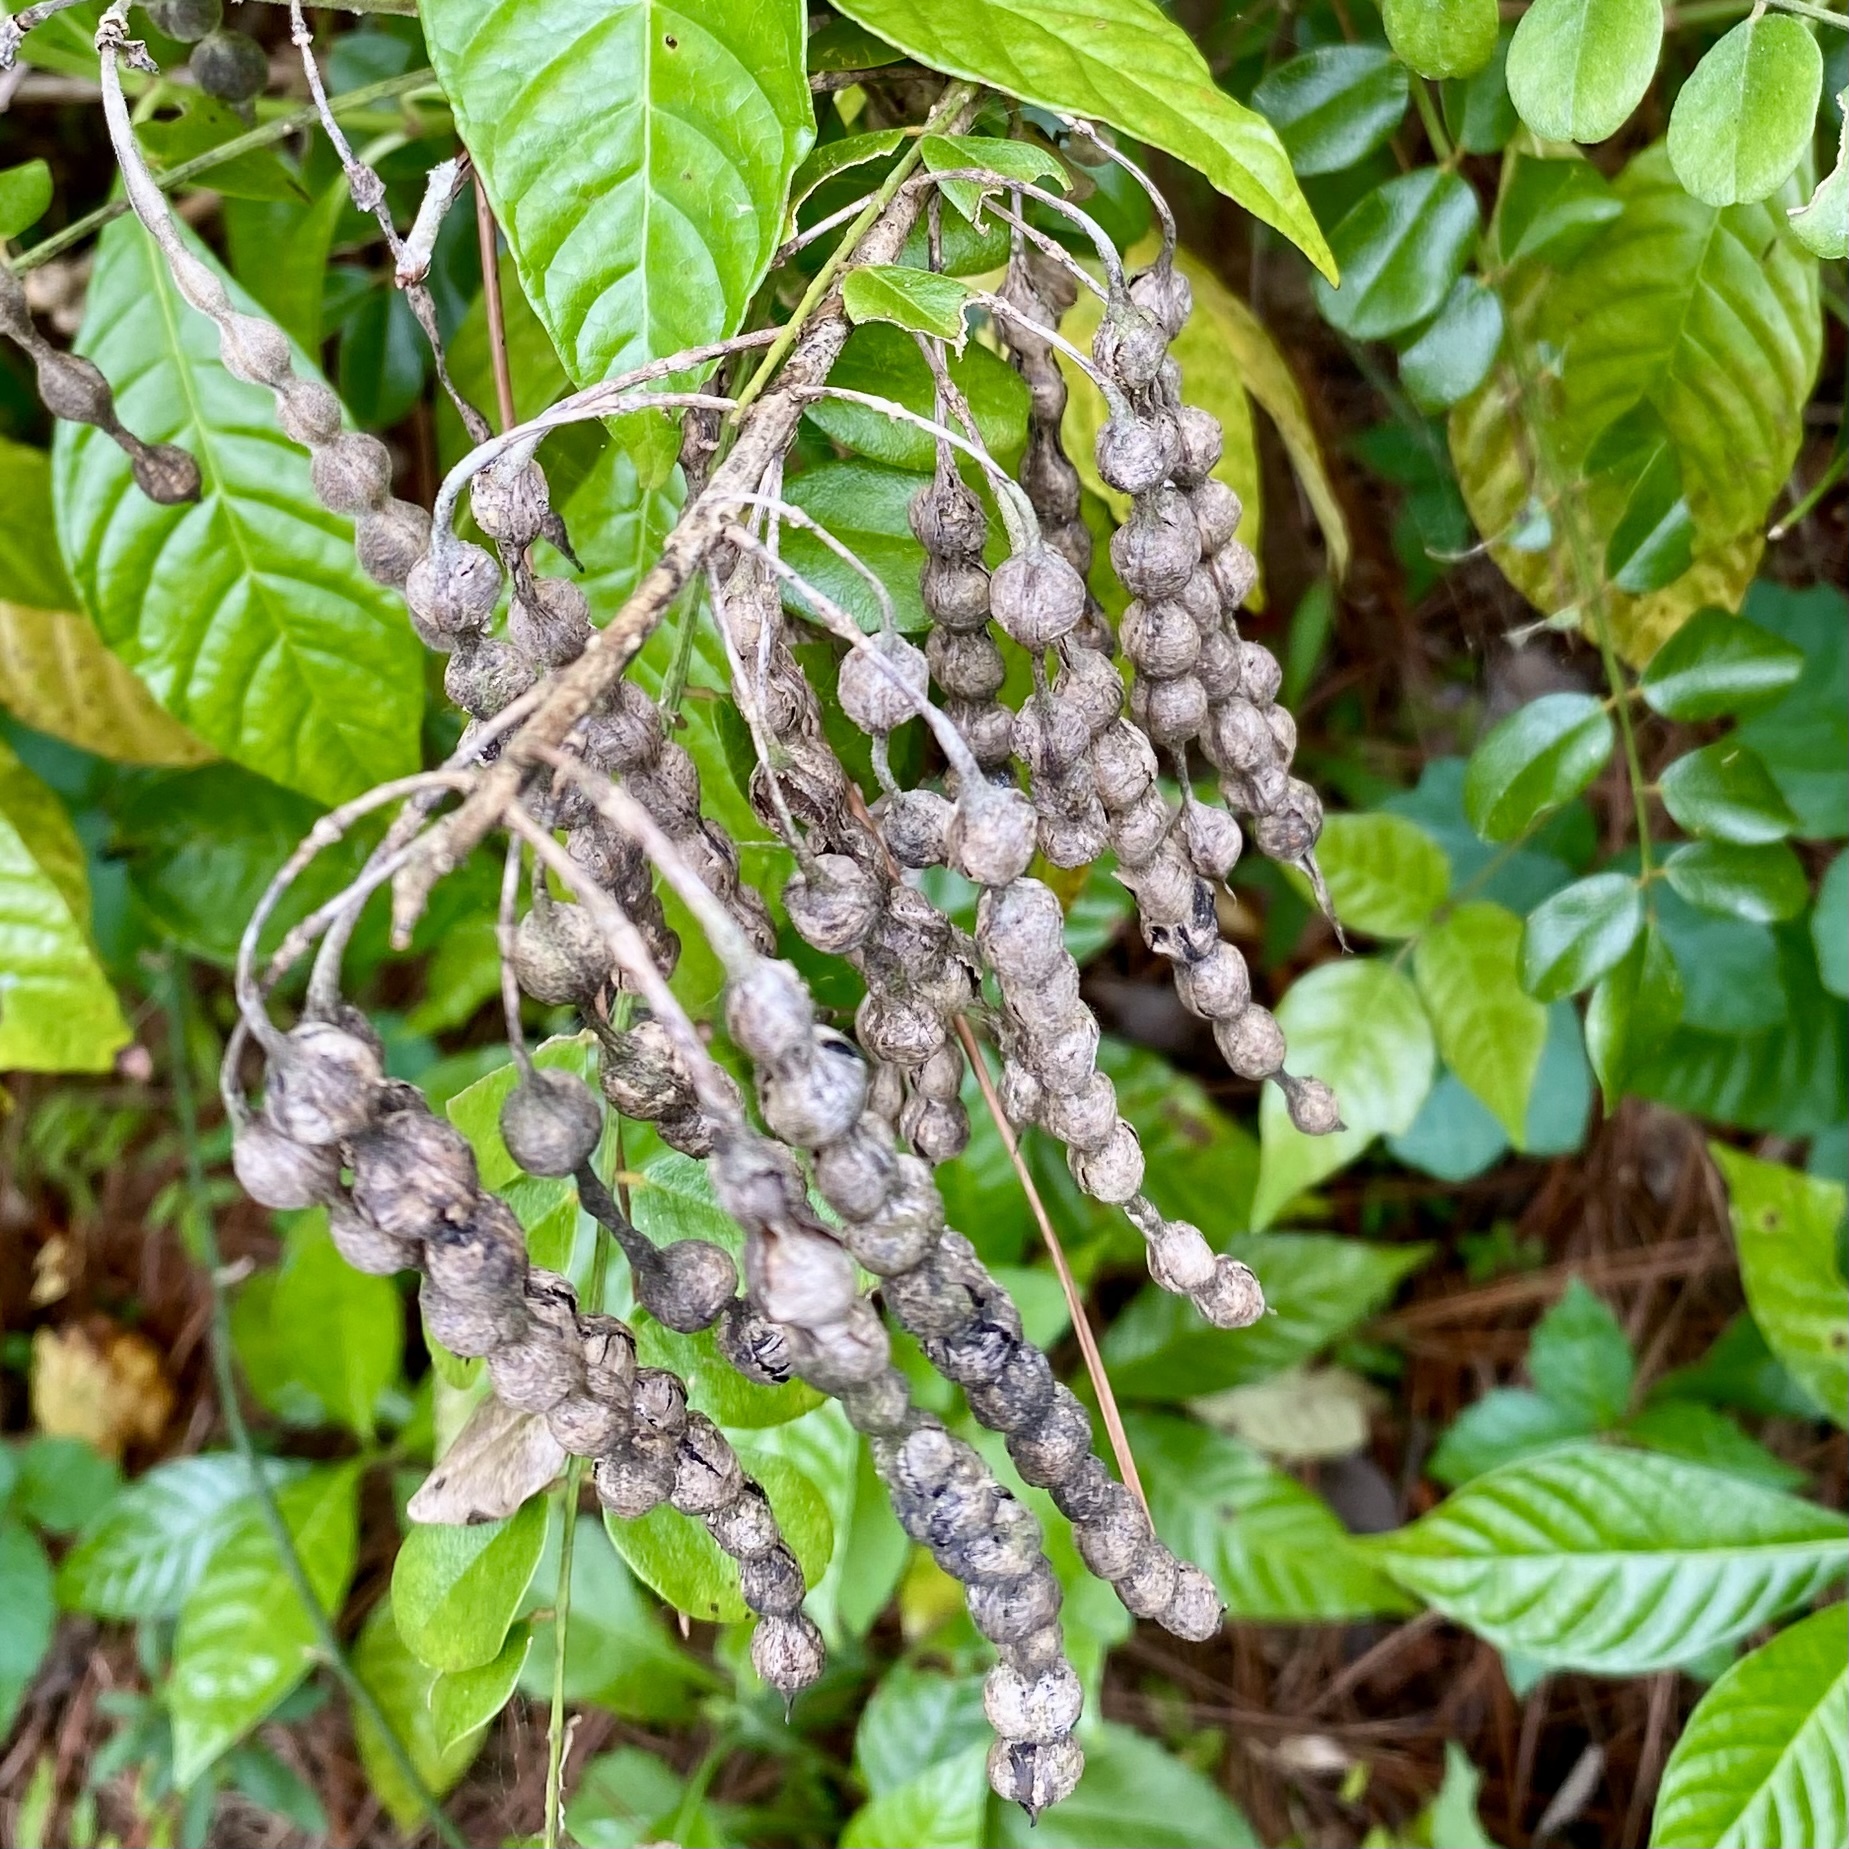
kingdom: Plantae
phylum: Tracheophyta
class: Magnoliopsida
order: Fabales
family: Fabaceae
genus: Sophora
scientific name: Sophora tomentosa
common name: Yellow necklacepod
